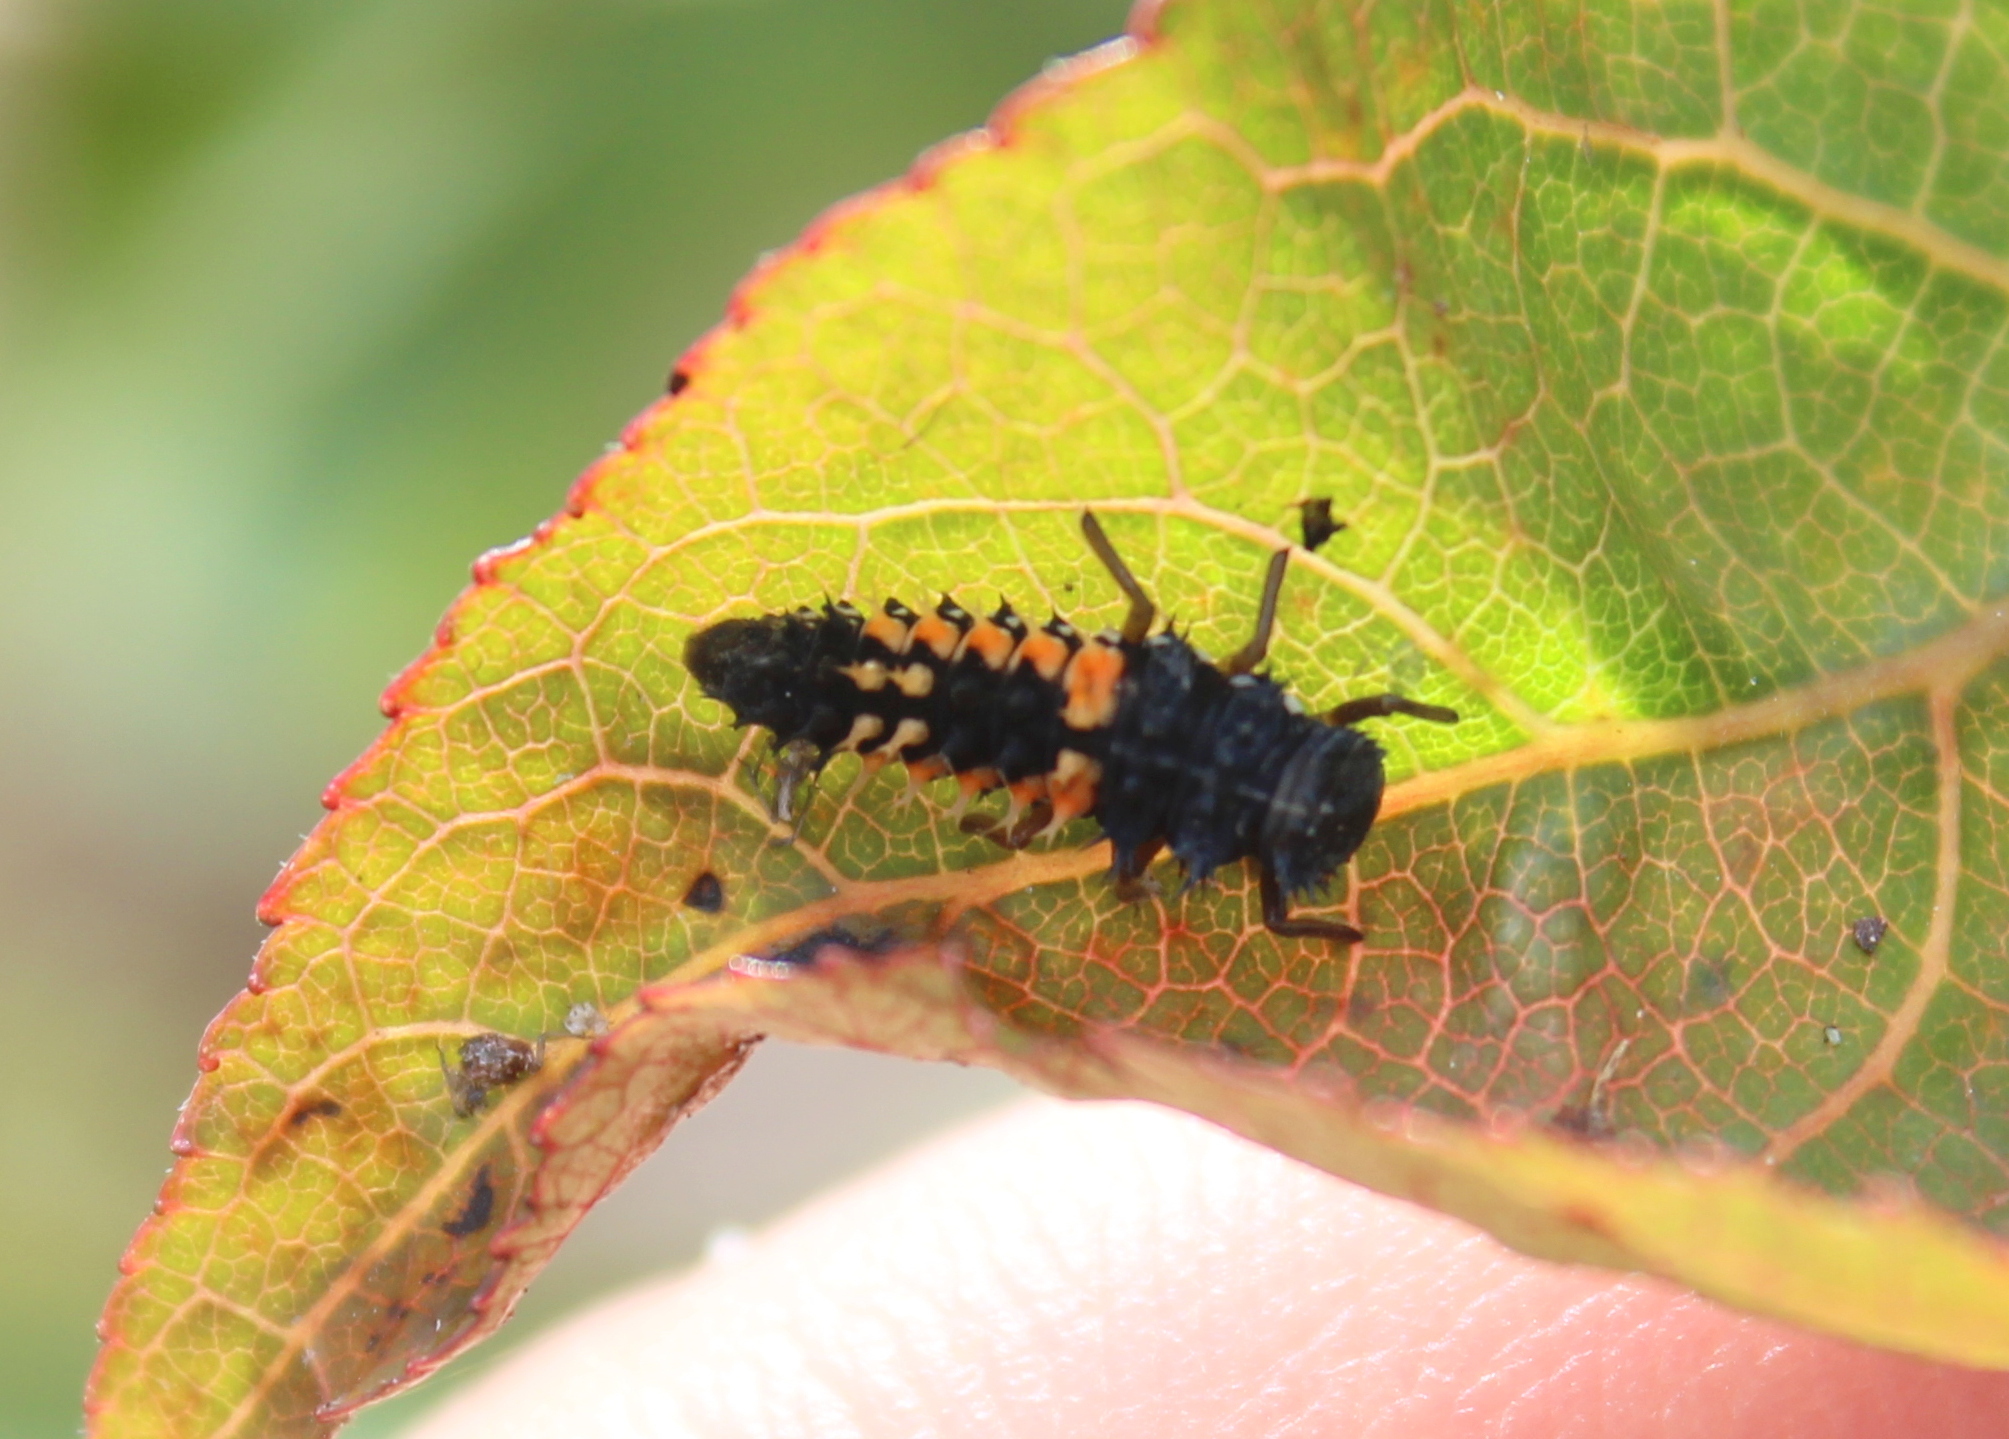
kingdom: Animalia
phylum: Arthropoda
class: Insecta
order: Coleoptera
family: Coccinellidae
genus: Harmonia
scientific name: Harmonia axyridis
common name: Harlequin ladybird
